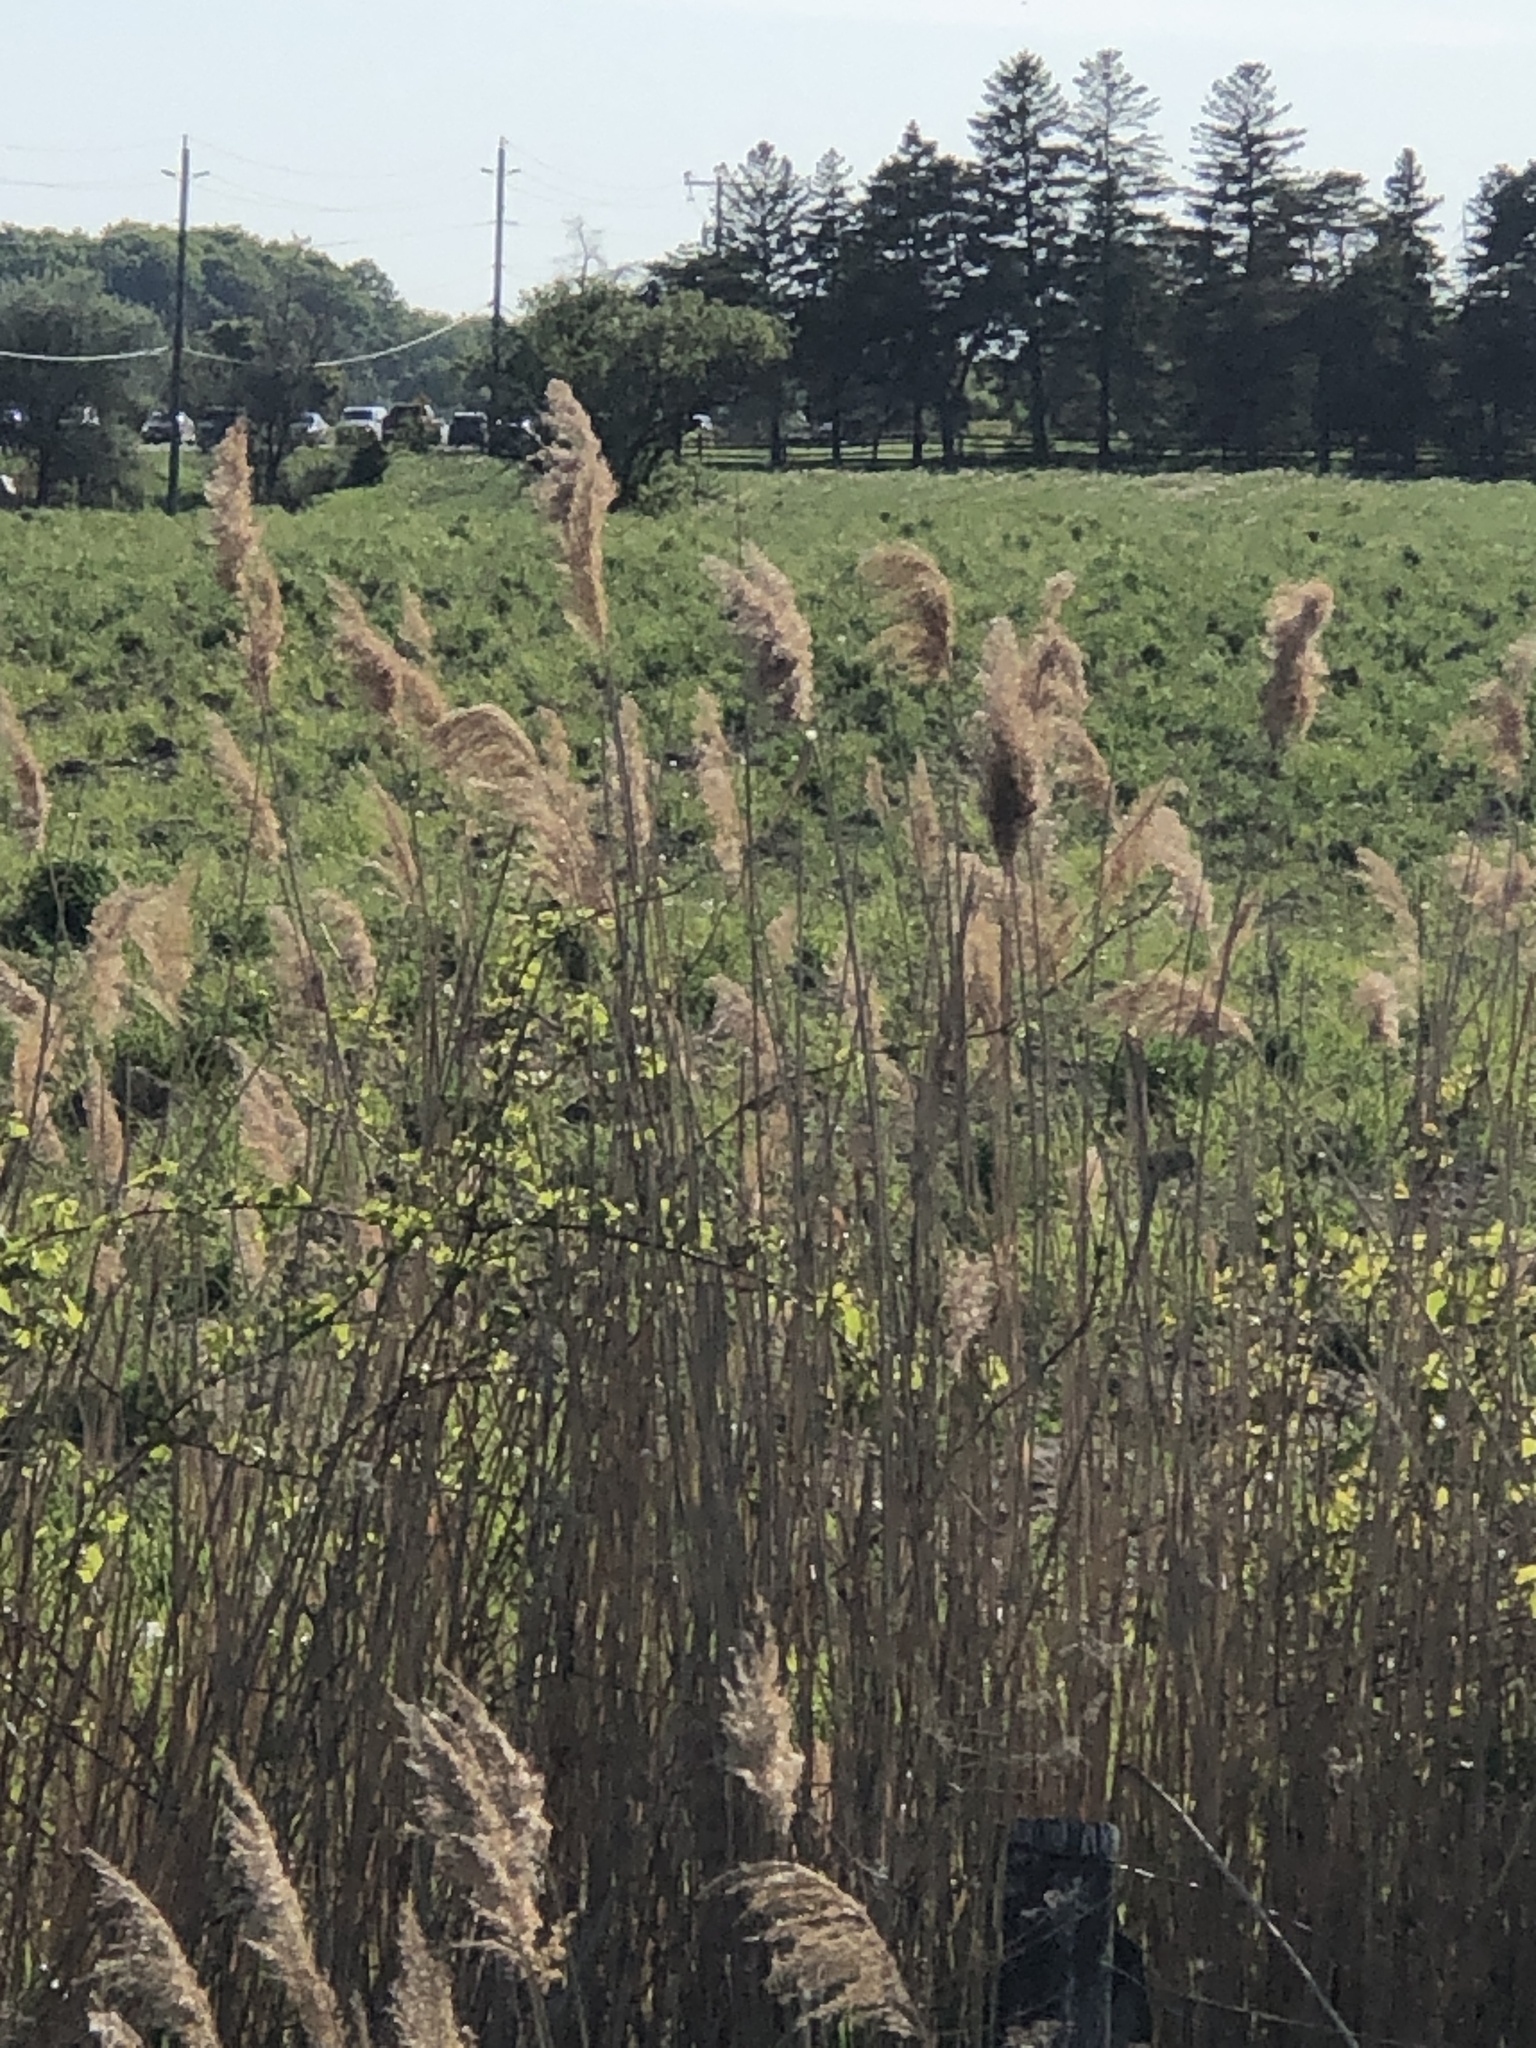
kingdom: Plantae
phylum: Tracheophyta
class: Liliopsida
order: Poales
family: Poaceae
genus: Phragmites
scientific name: Phragmites australis
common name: Common reed
